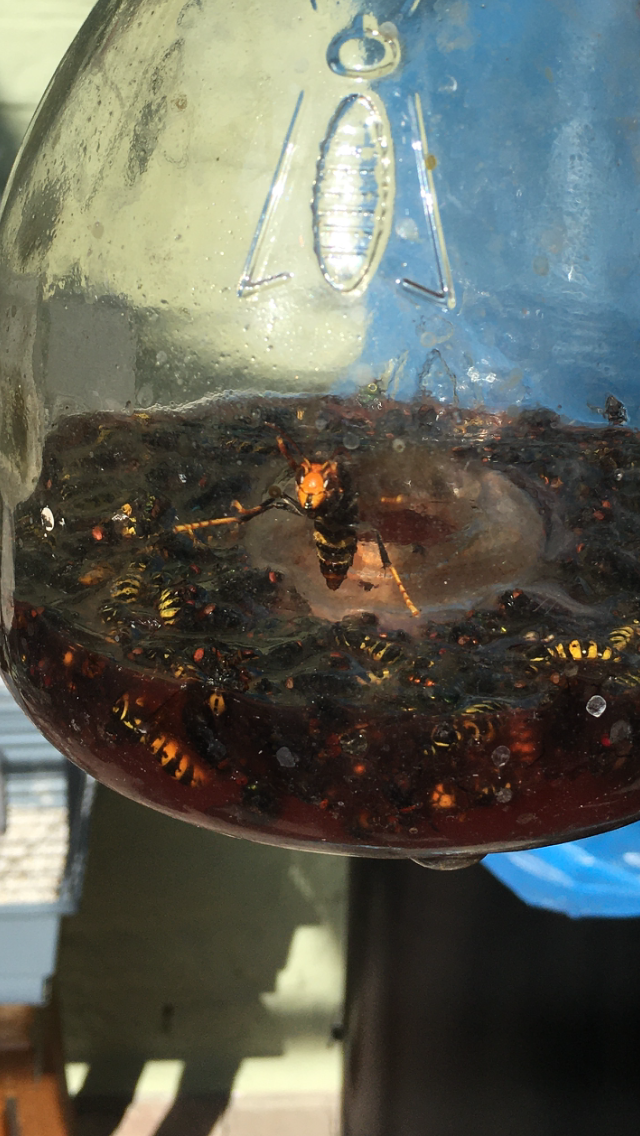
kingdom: Animalia
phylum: Arthropoda
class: Insecta
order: Hymenoptera
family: Vespidae
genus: Vespa
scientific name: Vespa velutina
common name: Asian hornet
